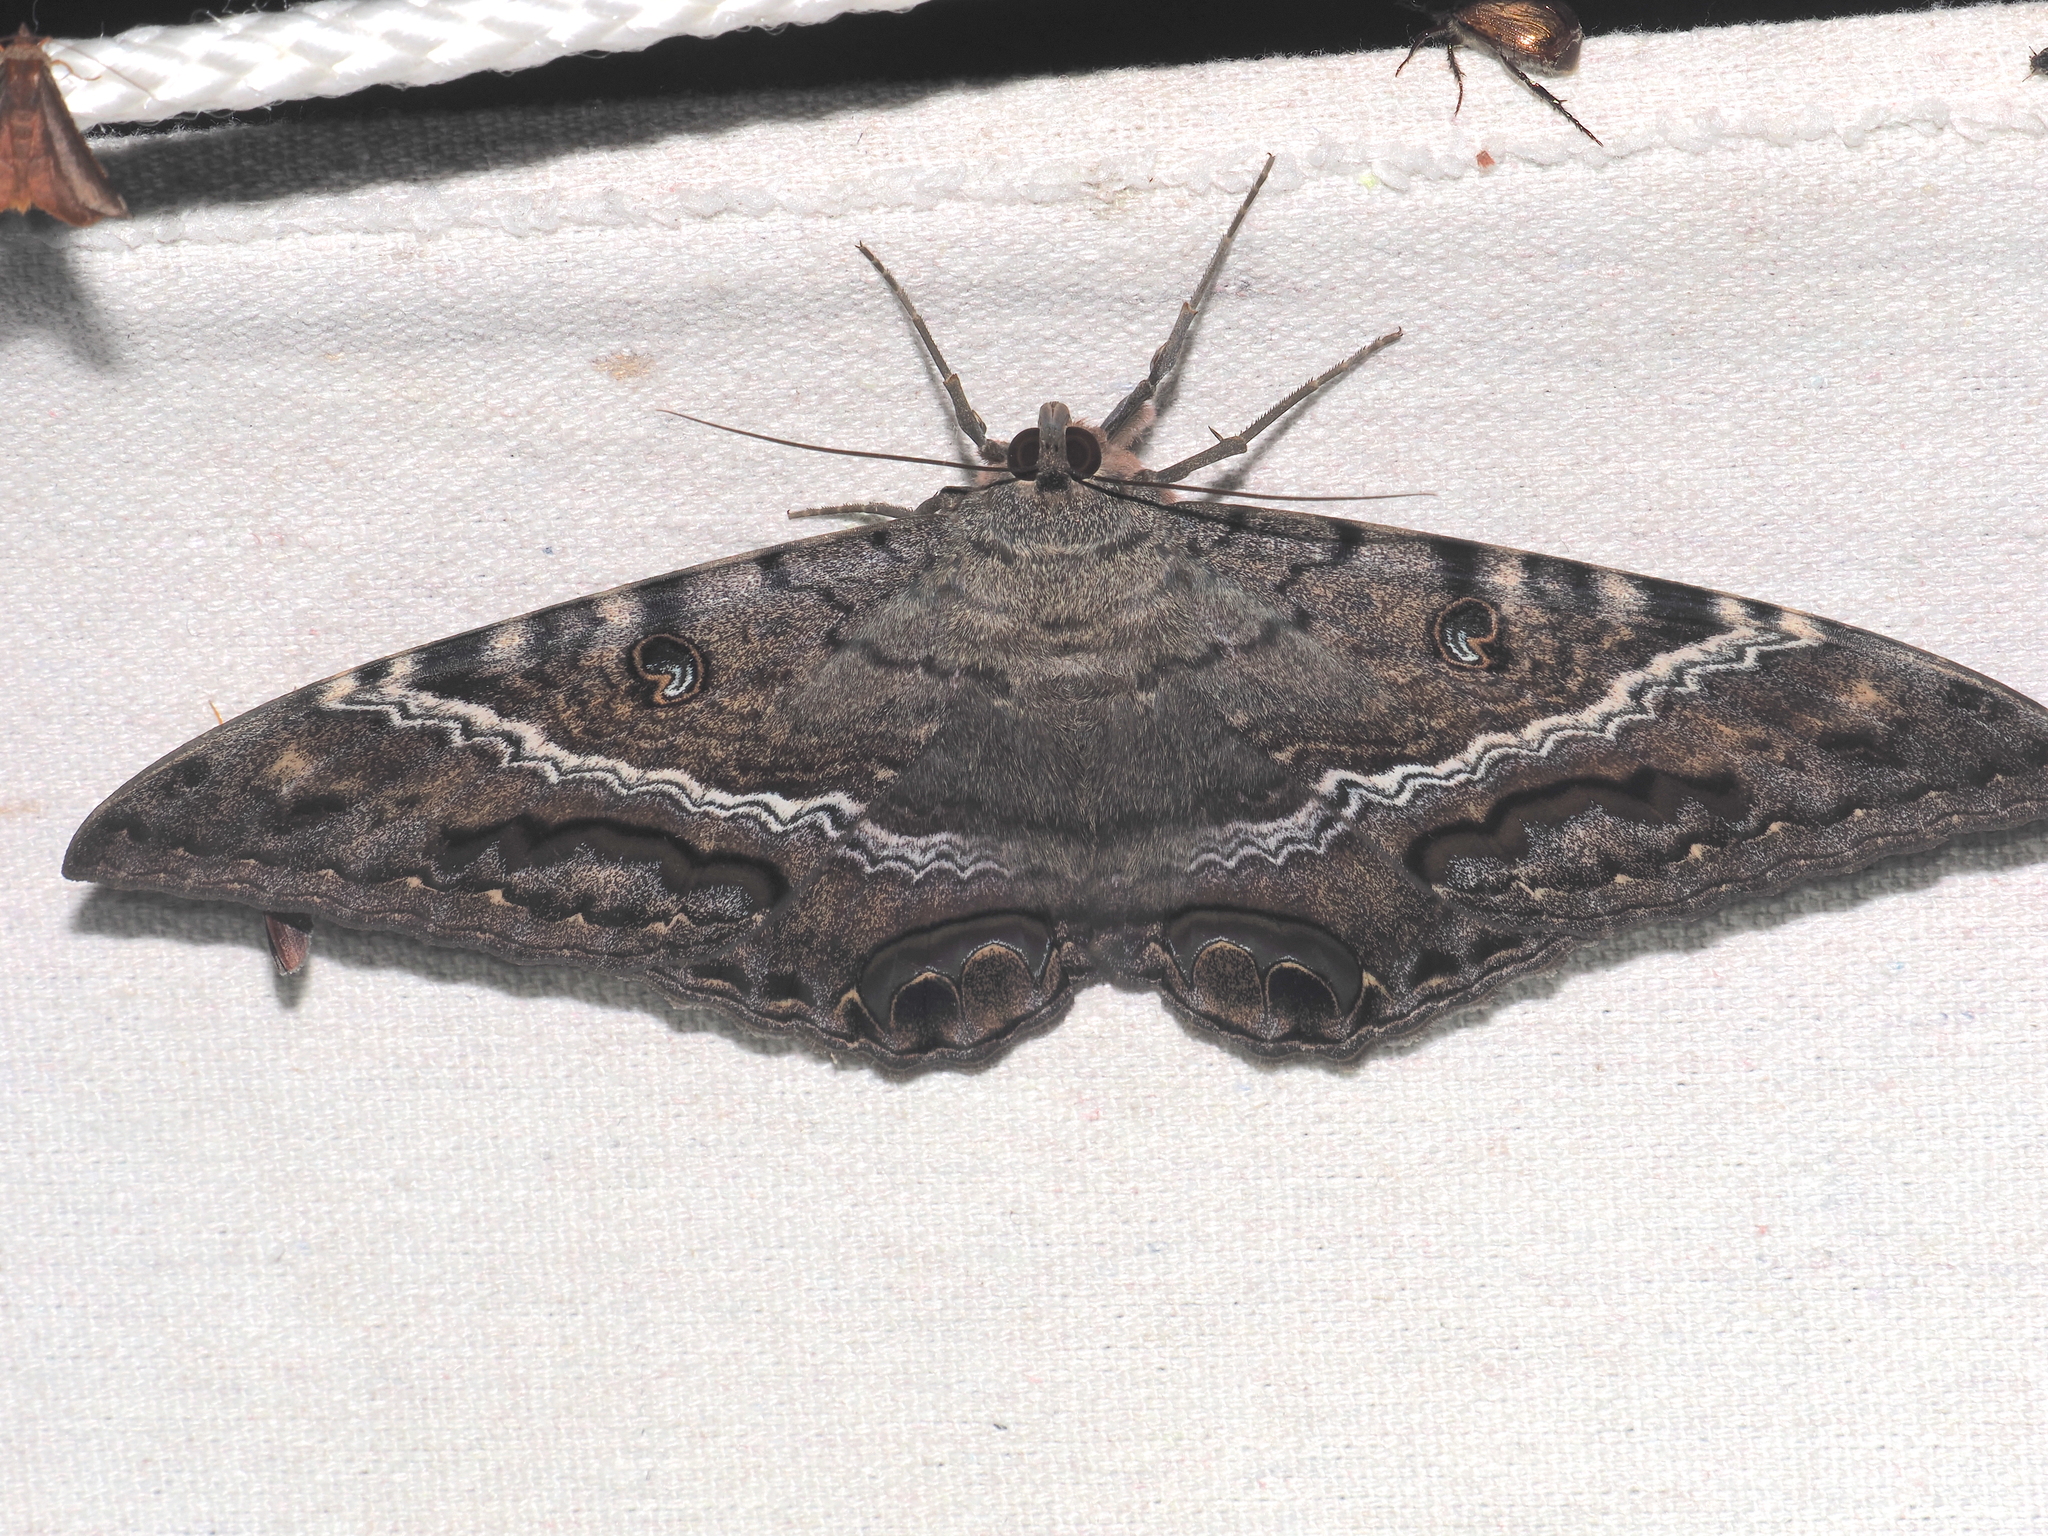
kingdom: Animalia
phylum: Arthropoda
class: Insecta
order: Lepidoptera
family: Erebidae
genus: Ascalapha
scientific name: Ascalapha odorata
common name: Black witch
